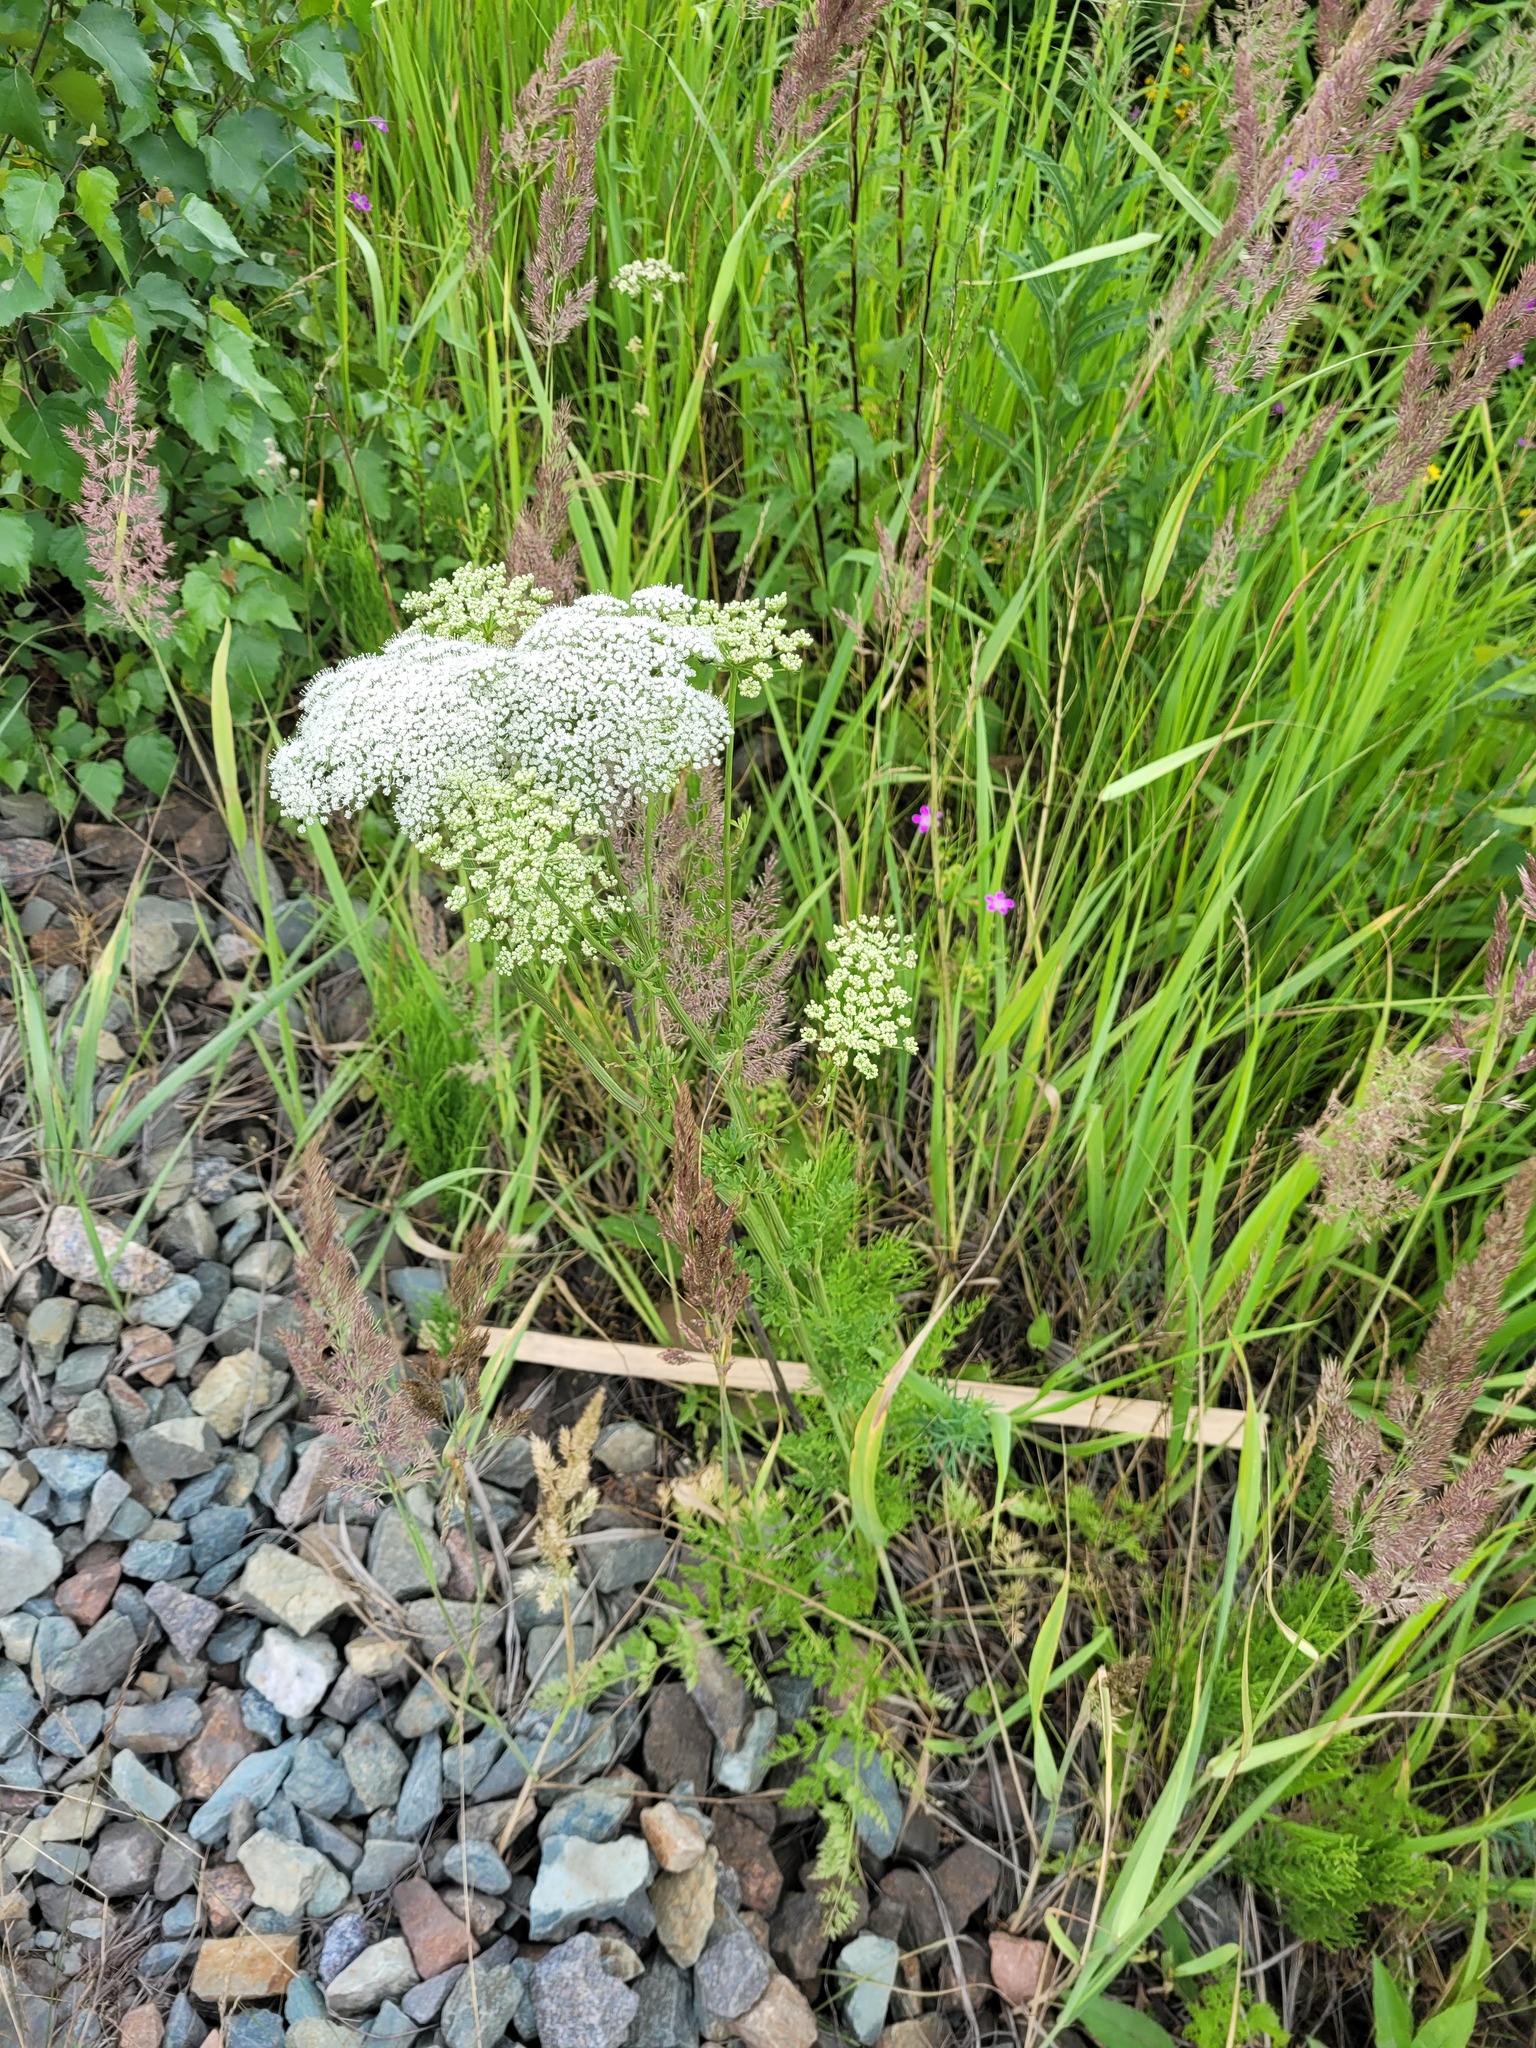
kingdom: Plantae
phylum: Tracheophyta
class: Magnoliopsida
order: Apiales
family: Apiaceae
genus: Selinum
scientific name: Selinum carvifolia
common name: Cambridge milk-parsley
